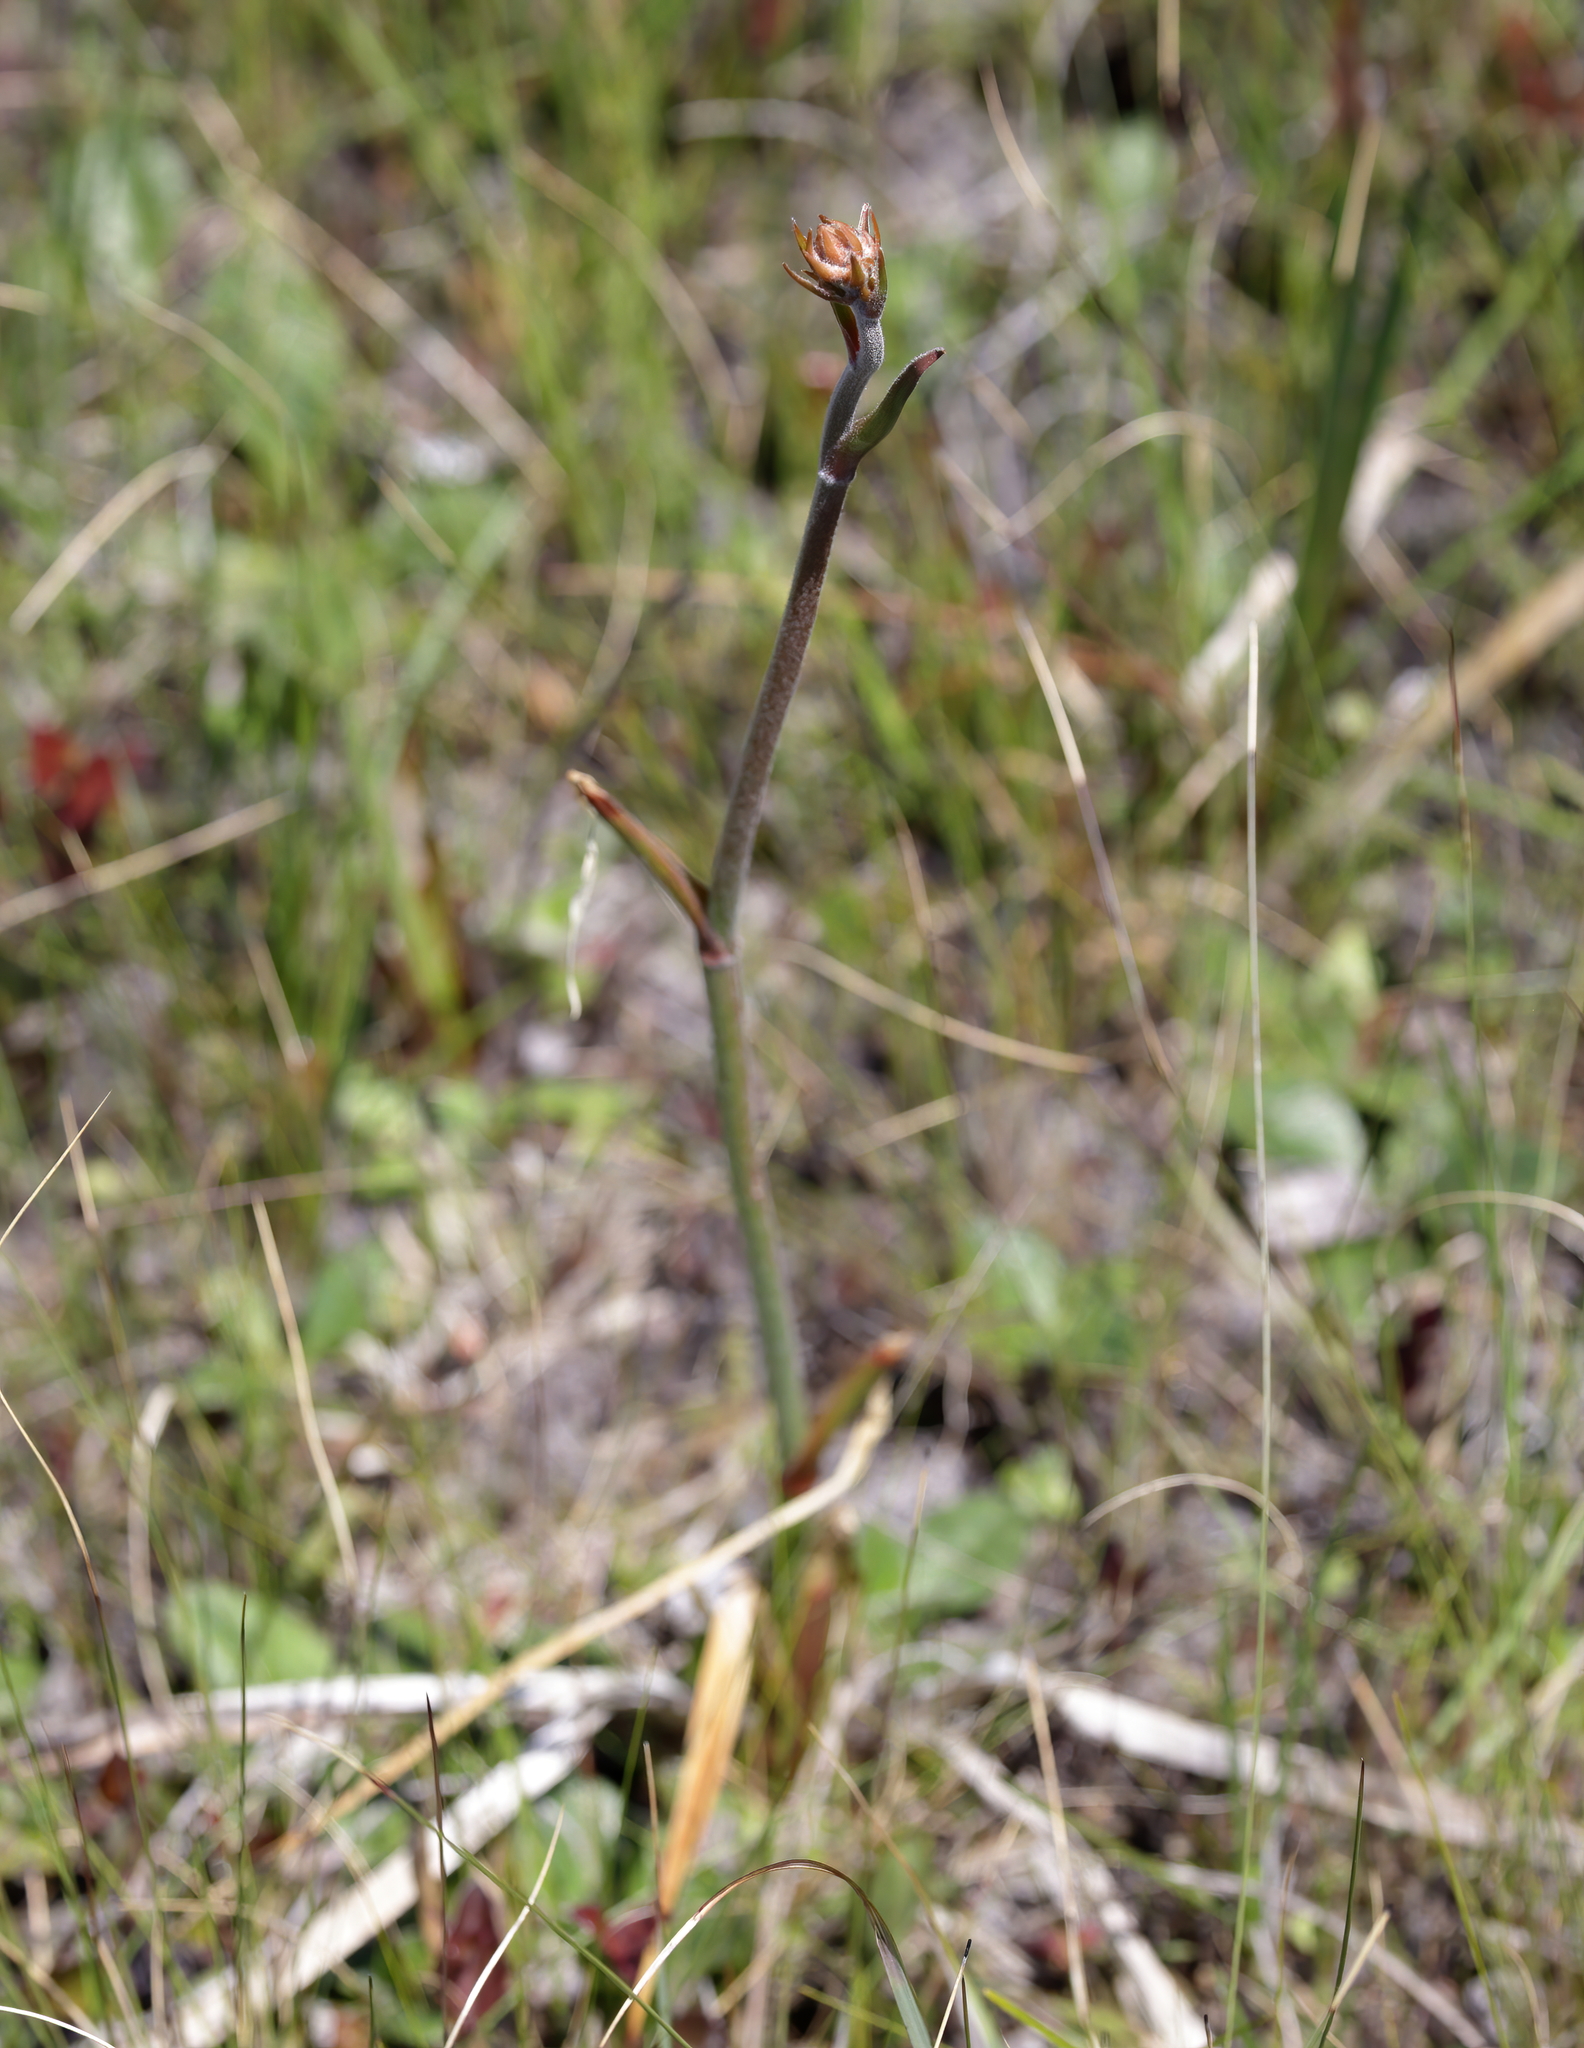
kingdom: Plantae
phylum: Tracheophyta
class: Liliopsida
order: Commelinales
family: Haemodoraceae
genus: Lachnanthes
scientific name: Lachnanthes caroliana
